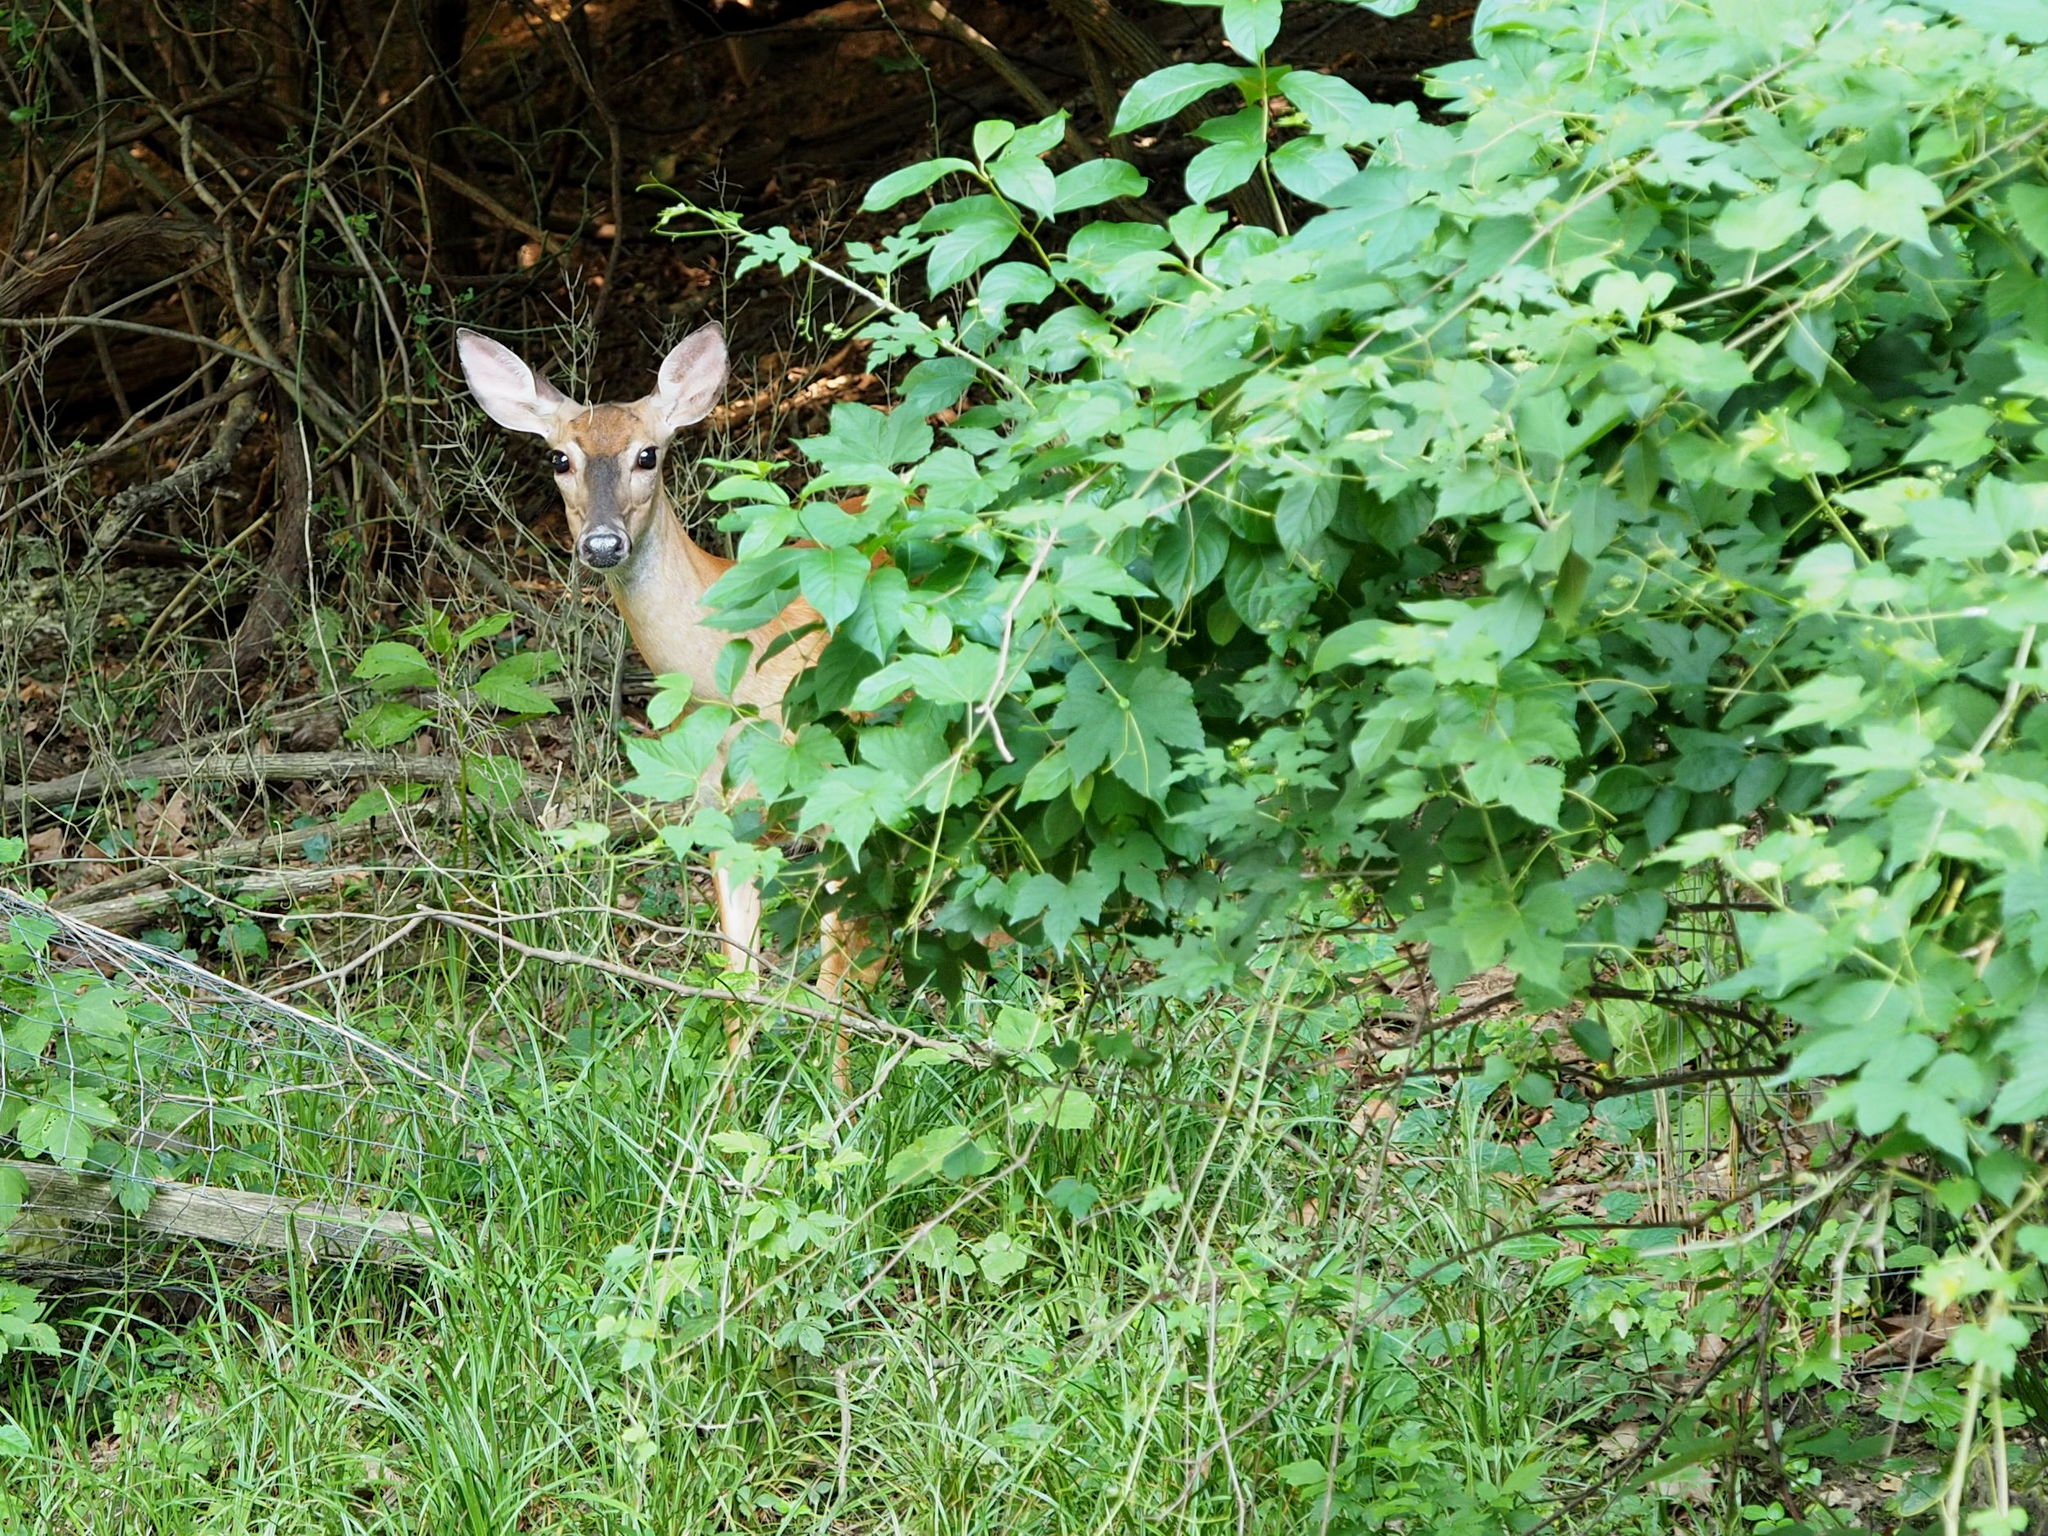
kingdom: Animalia
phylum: Chordata
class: Mammalia
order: Artiodactyla
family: Cervidae
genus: Odocoileus
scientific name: Odocoileus virginianus
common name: White-tailed deer
